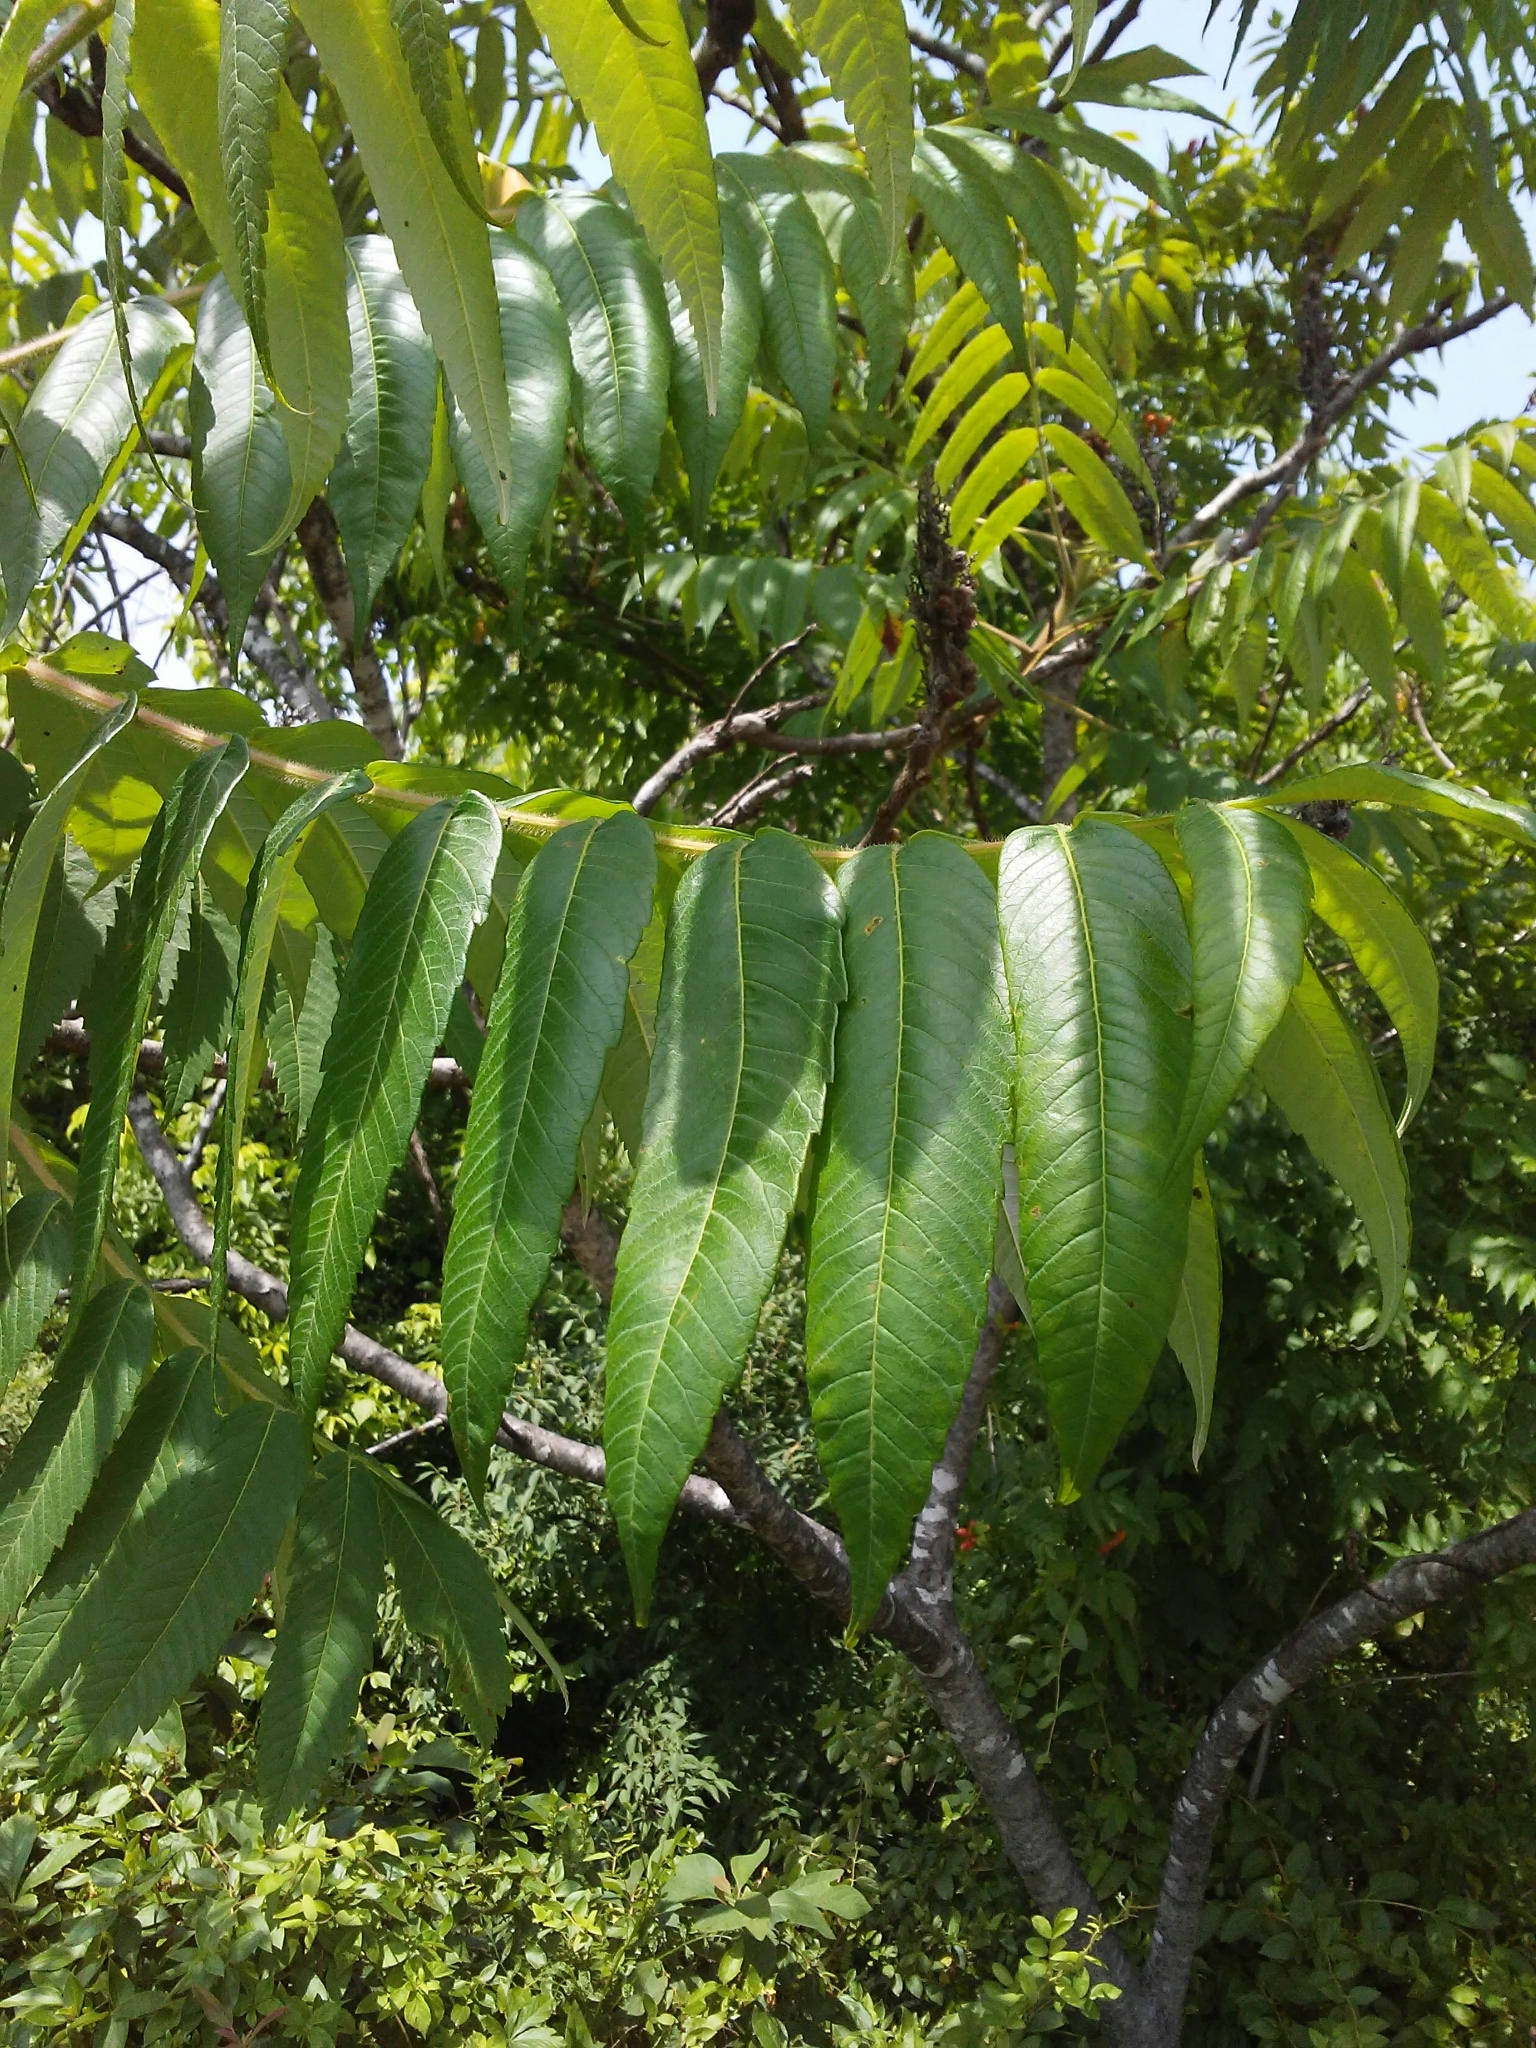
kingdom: Plantae
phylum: Tracheophyta
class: Magnoliopsida
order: Sapindales
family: Anacardiaceae
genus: Rhus
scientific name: Rhus typhina
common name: Staghorn sumac
